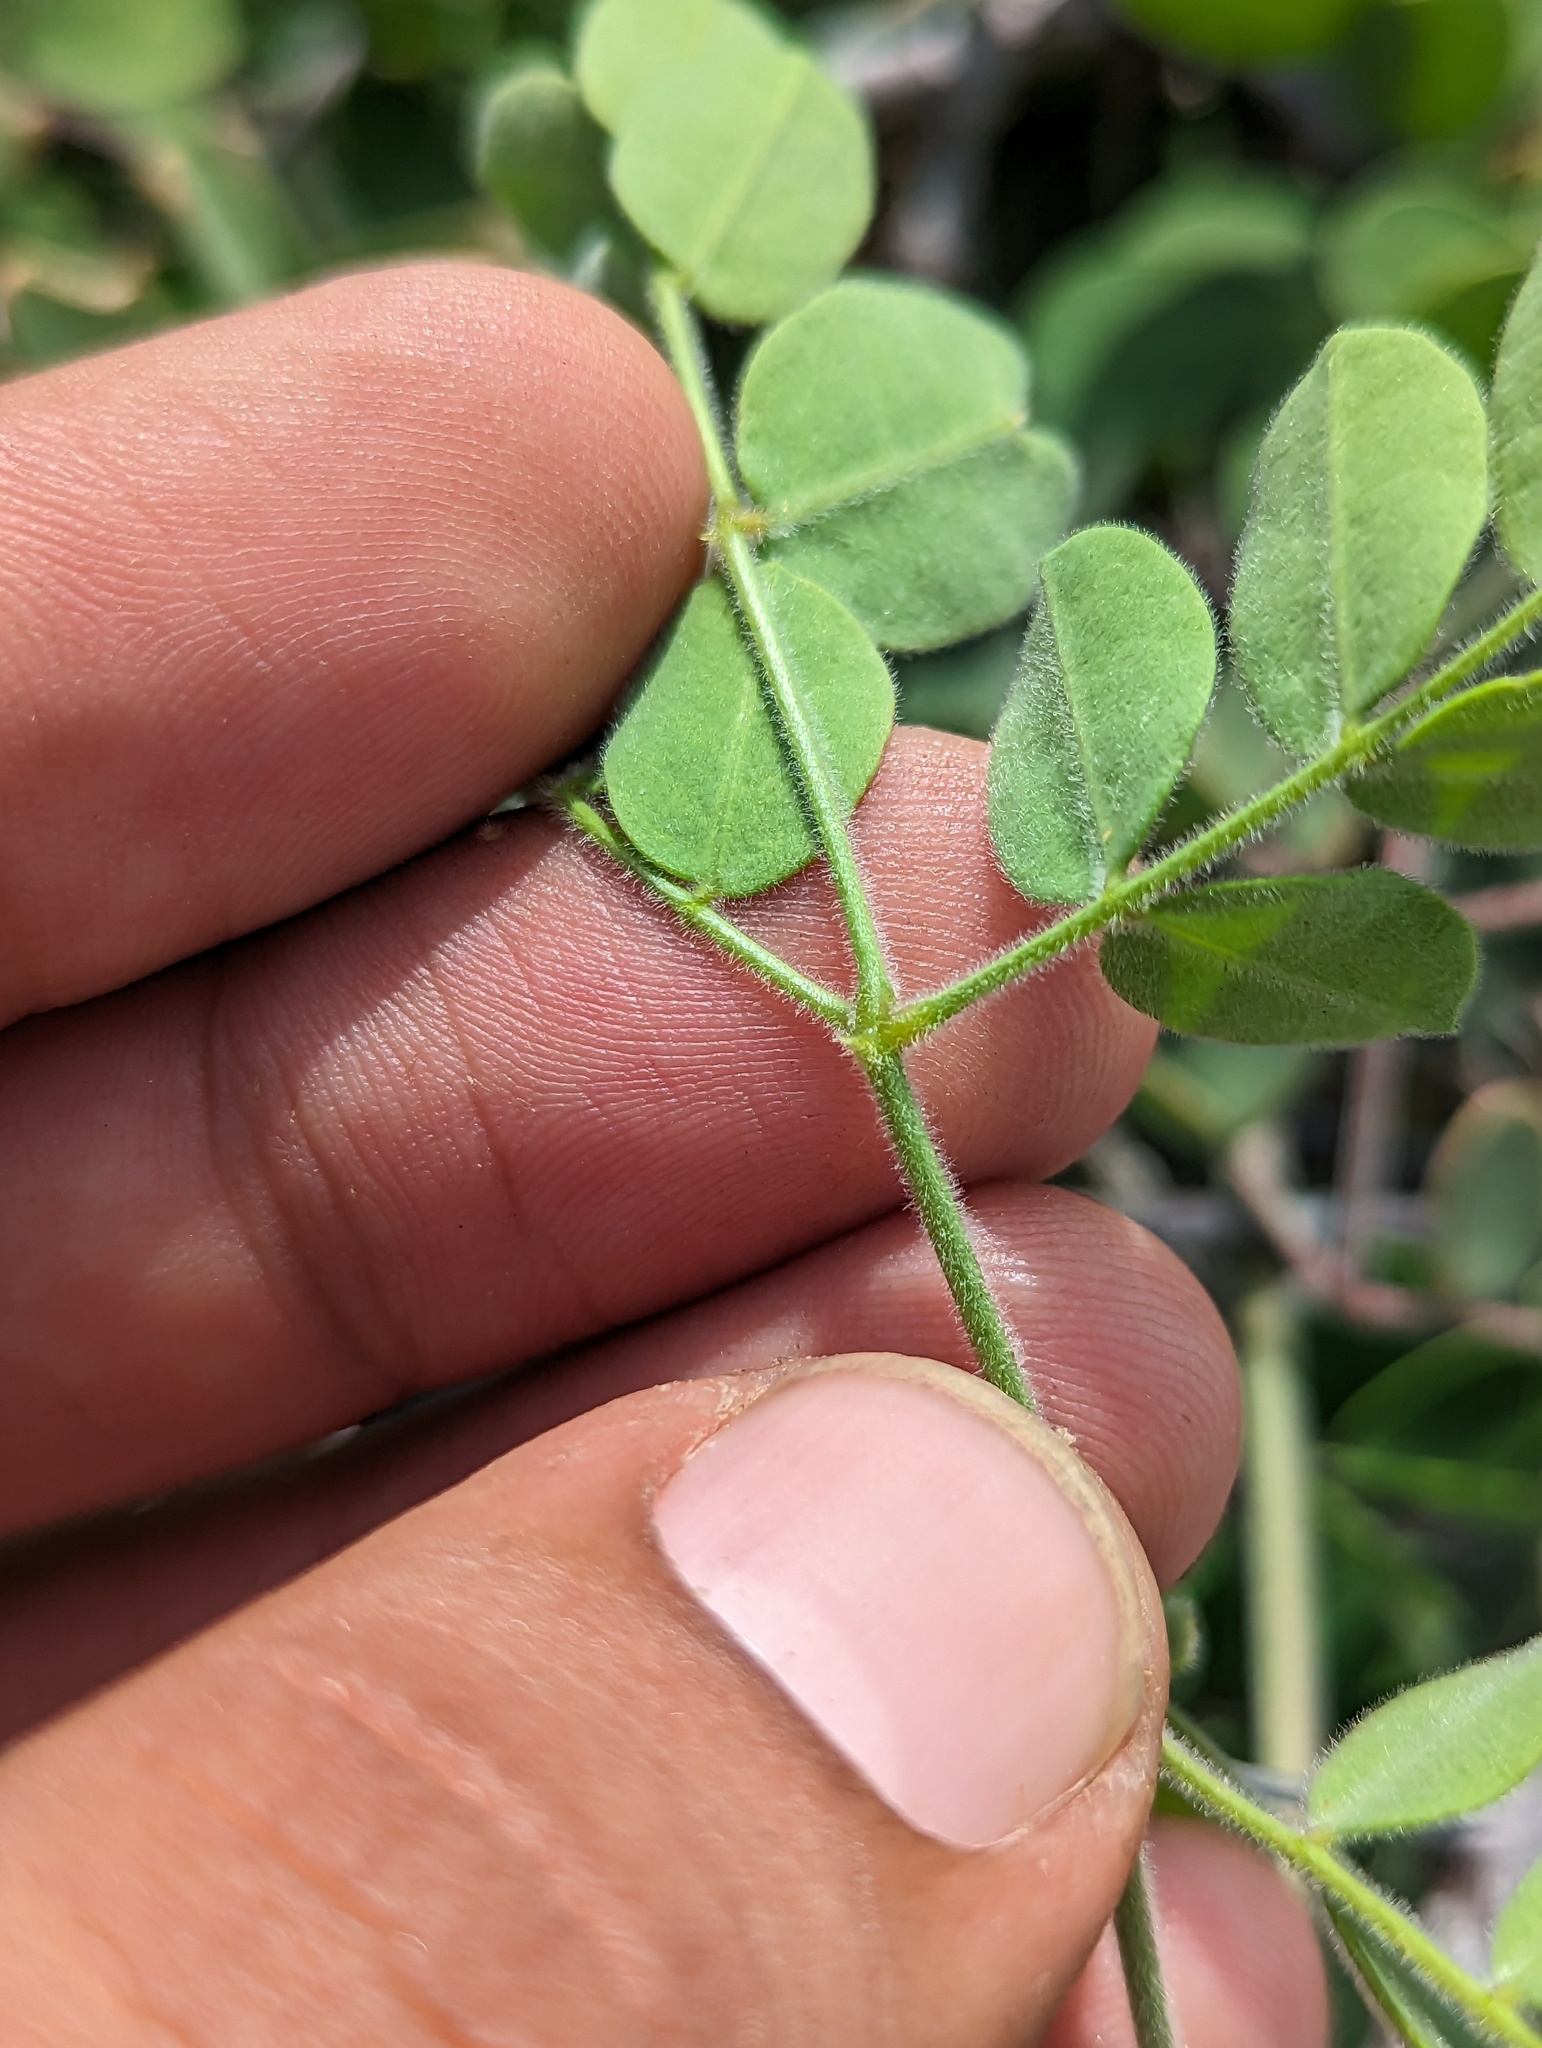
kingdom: Plantae
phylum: Tracheophyta
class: Magnoliopsida
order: Zygophyllales
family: Zygophyllaceae
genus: Kallstroemia
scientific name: Kallstroemia peninsularis
